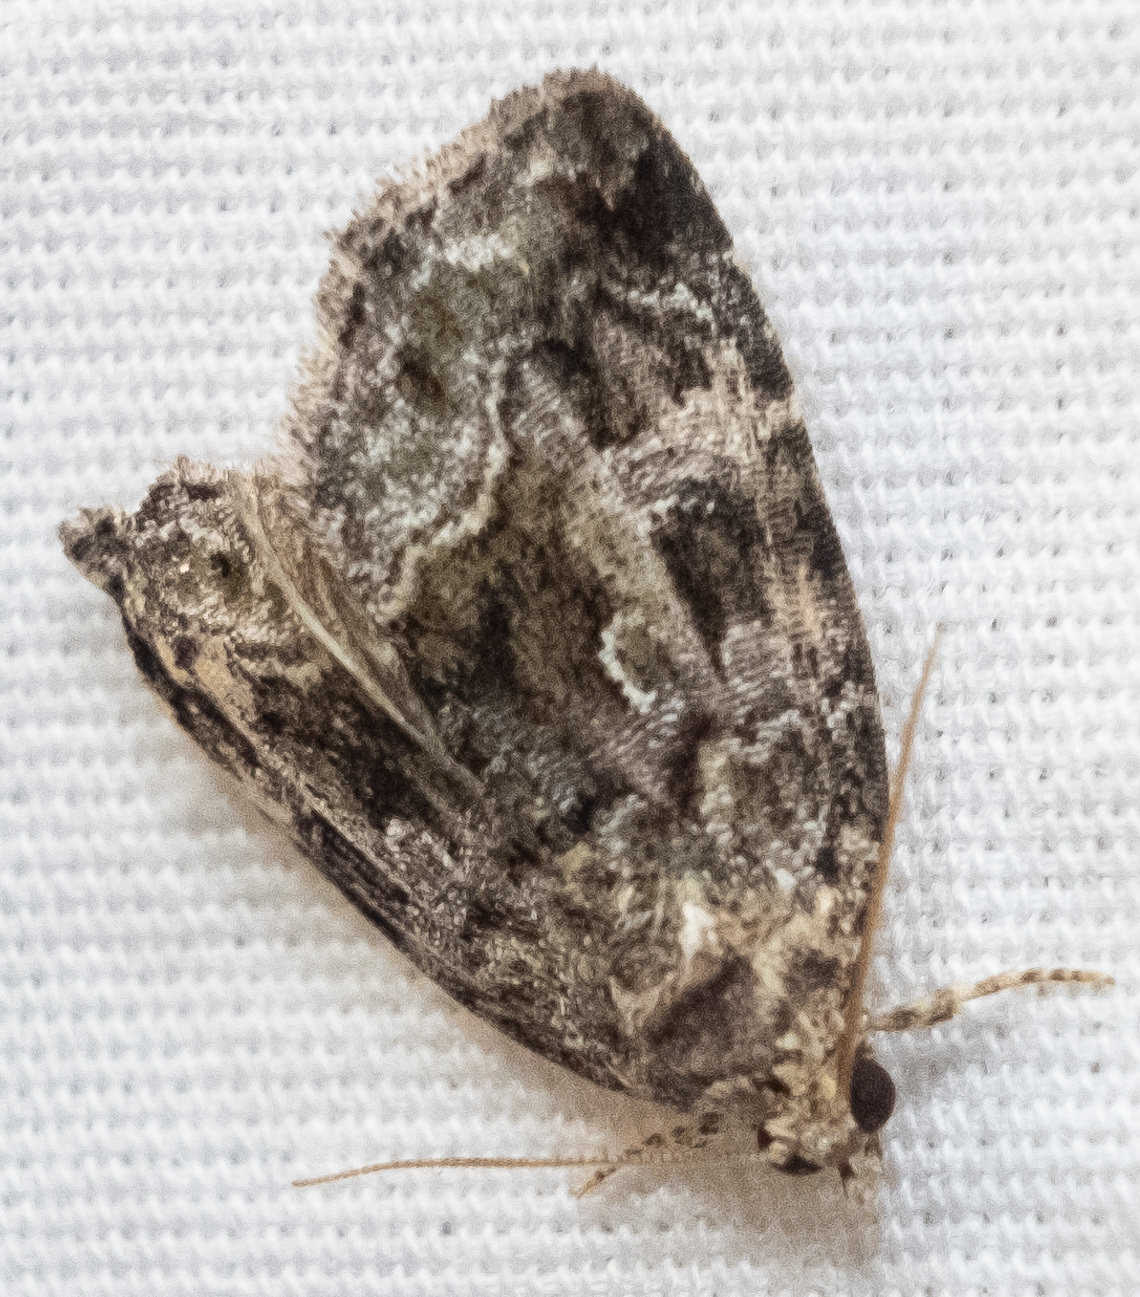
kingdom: Animalia
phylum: Arthropoda
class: Insecta
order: Lepidoptera
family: Noctuidae
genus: Protodeltote
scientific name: Protodeltote muscosula
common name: Large mossy glyph
